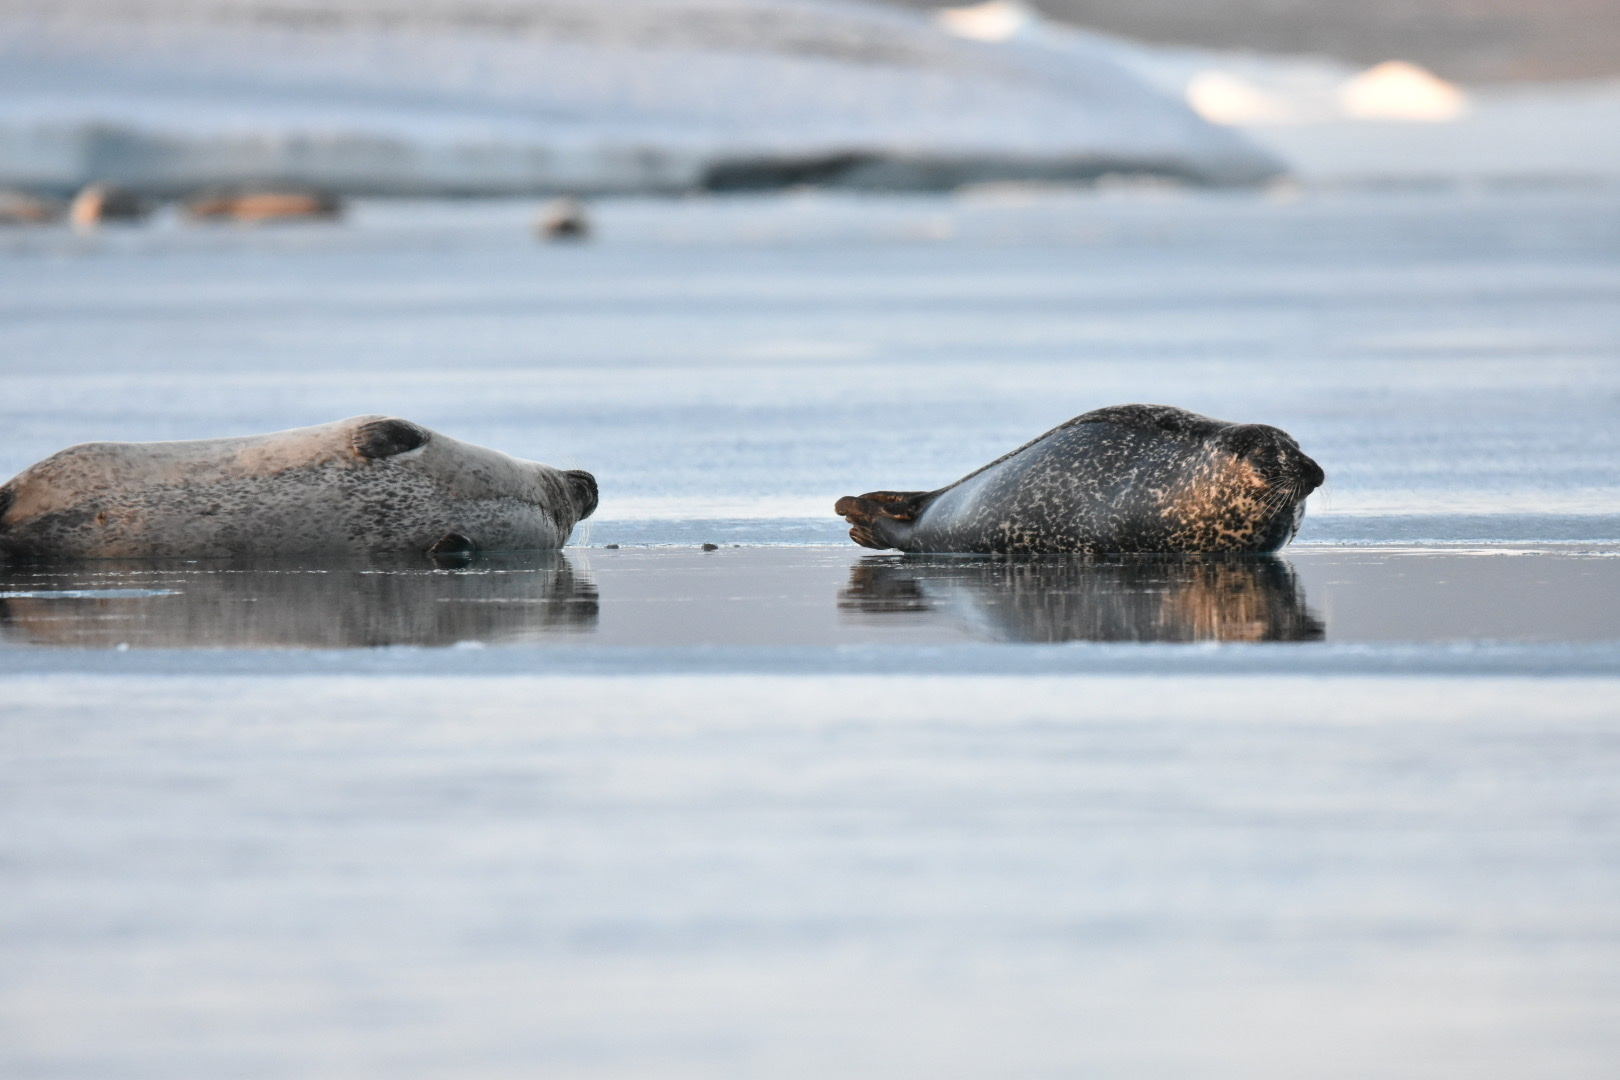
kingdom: Animalia
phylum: Chordata
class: Mammalia
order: Carnivora
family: Phocidae
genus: Phoca
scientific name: Phoca vitulina
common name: Harbor seal
